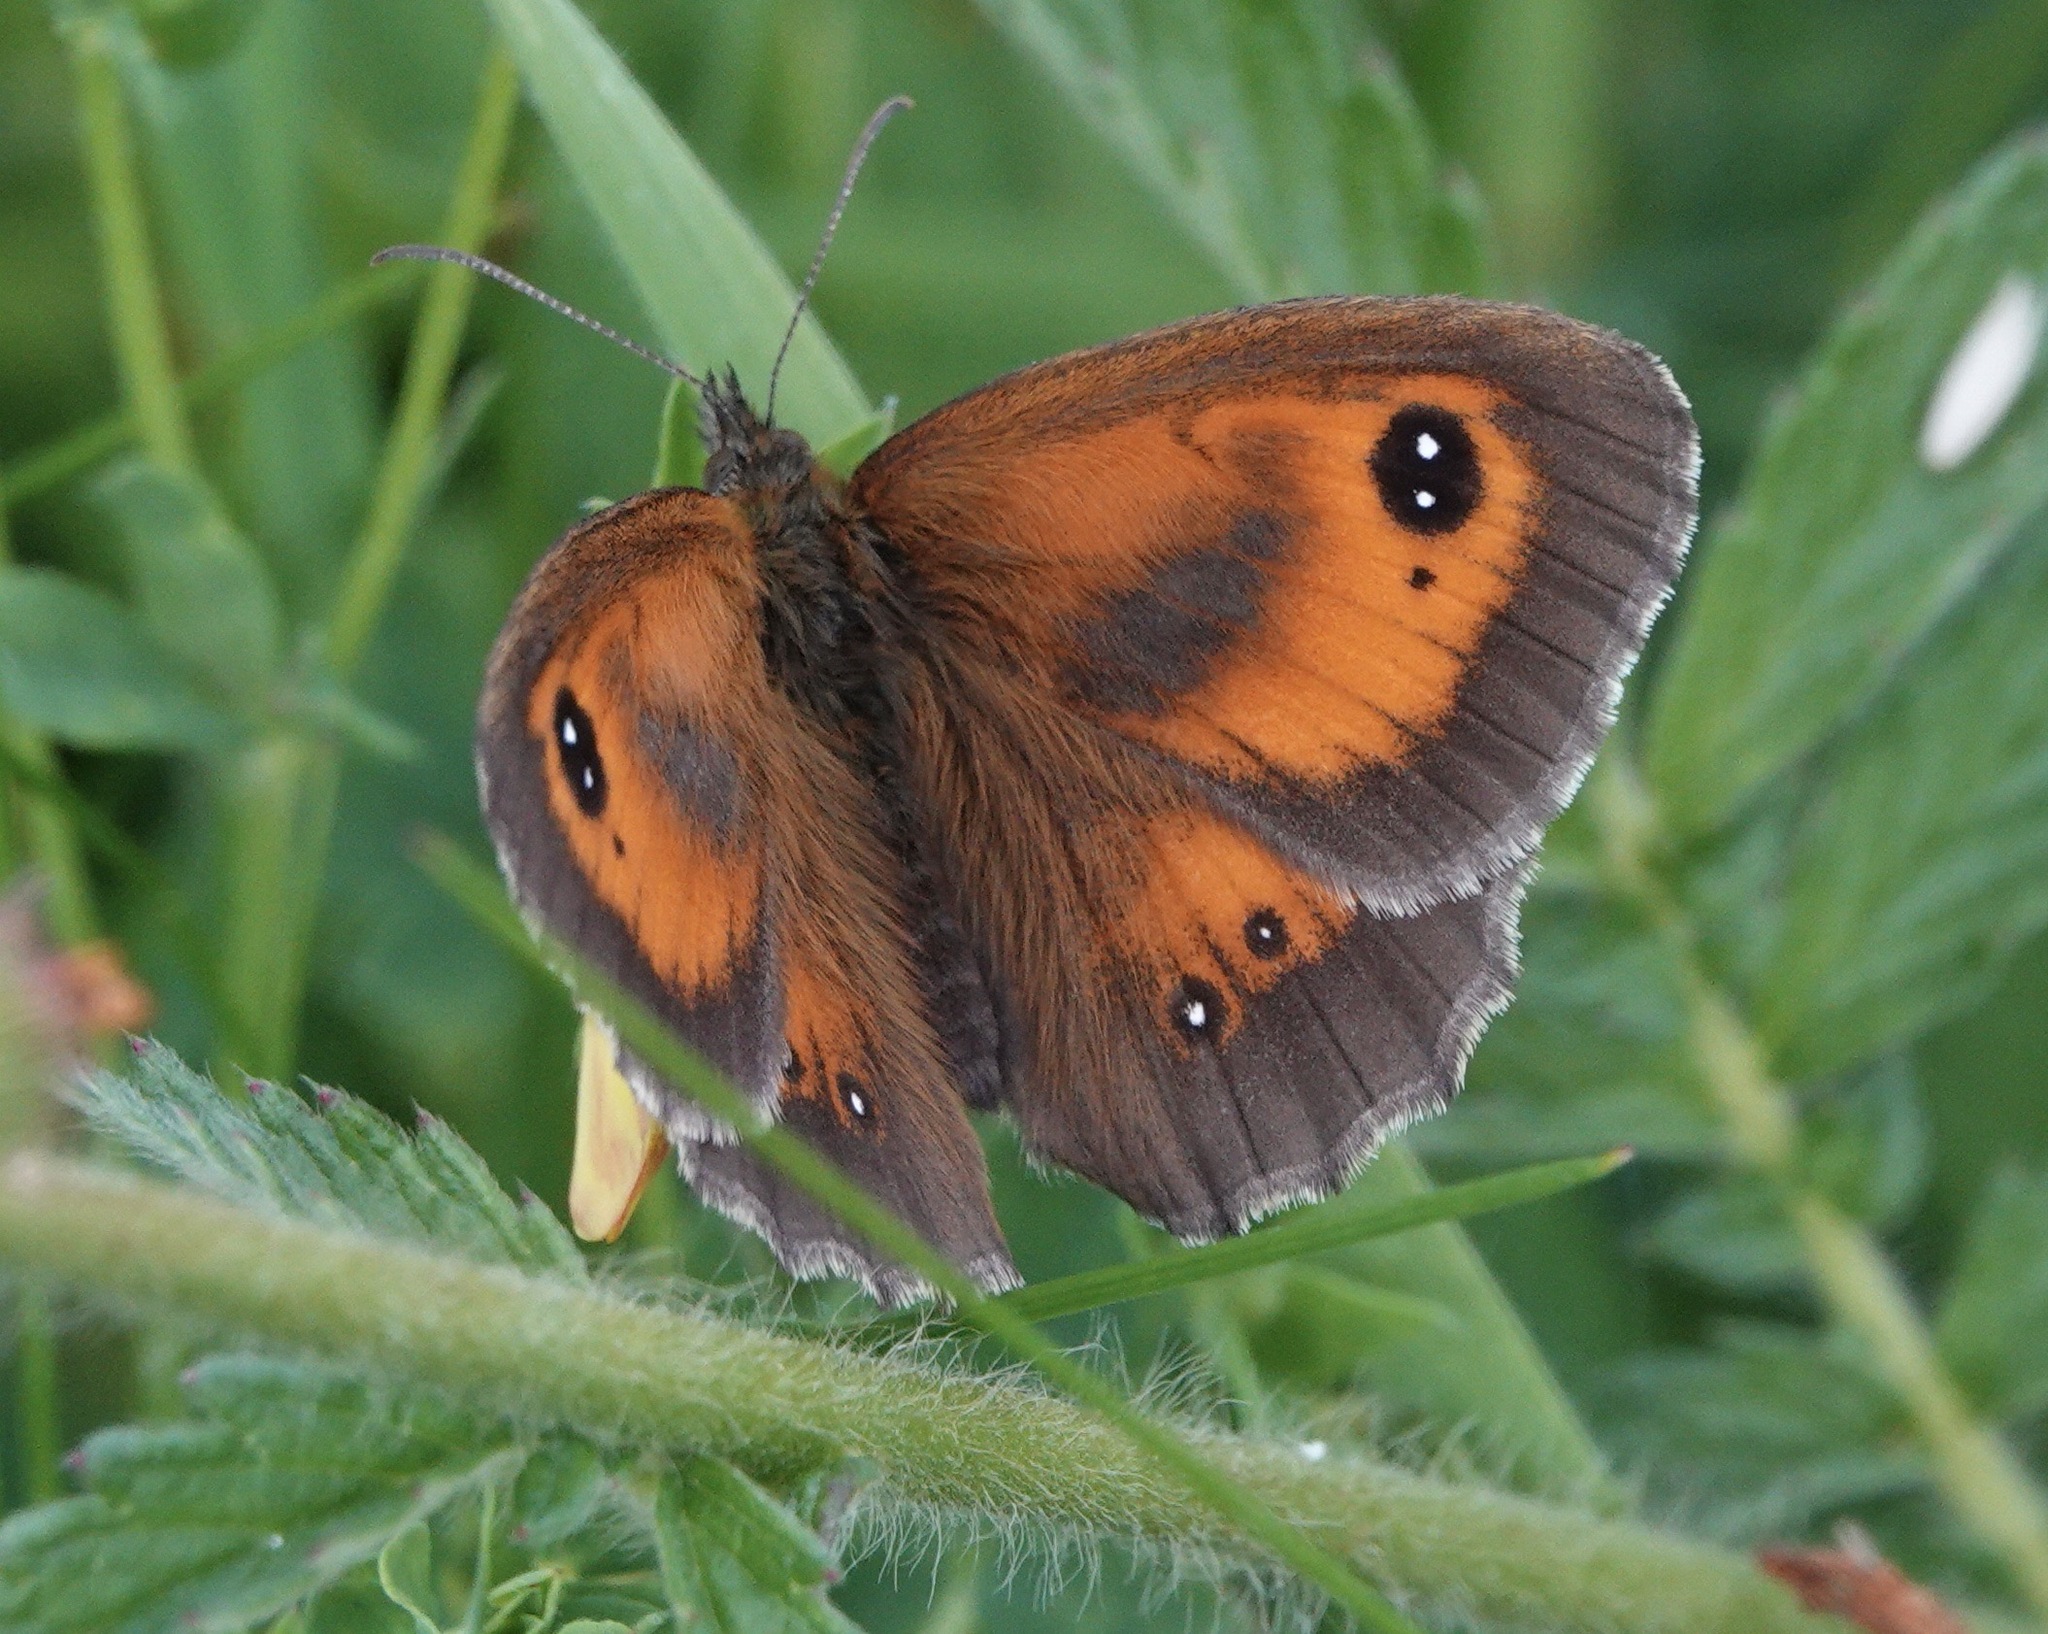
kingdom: Animalia
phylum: Arthropoda
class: Insecta
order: Lepidoptera
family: Nymphalidae
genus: Pyronia
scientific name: Pyronia tithonus
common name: Gatekeeper
